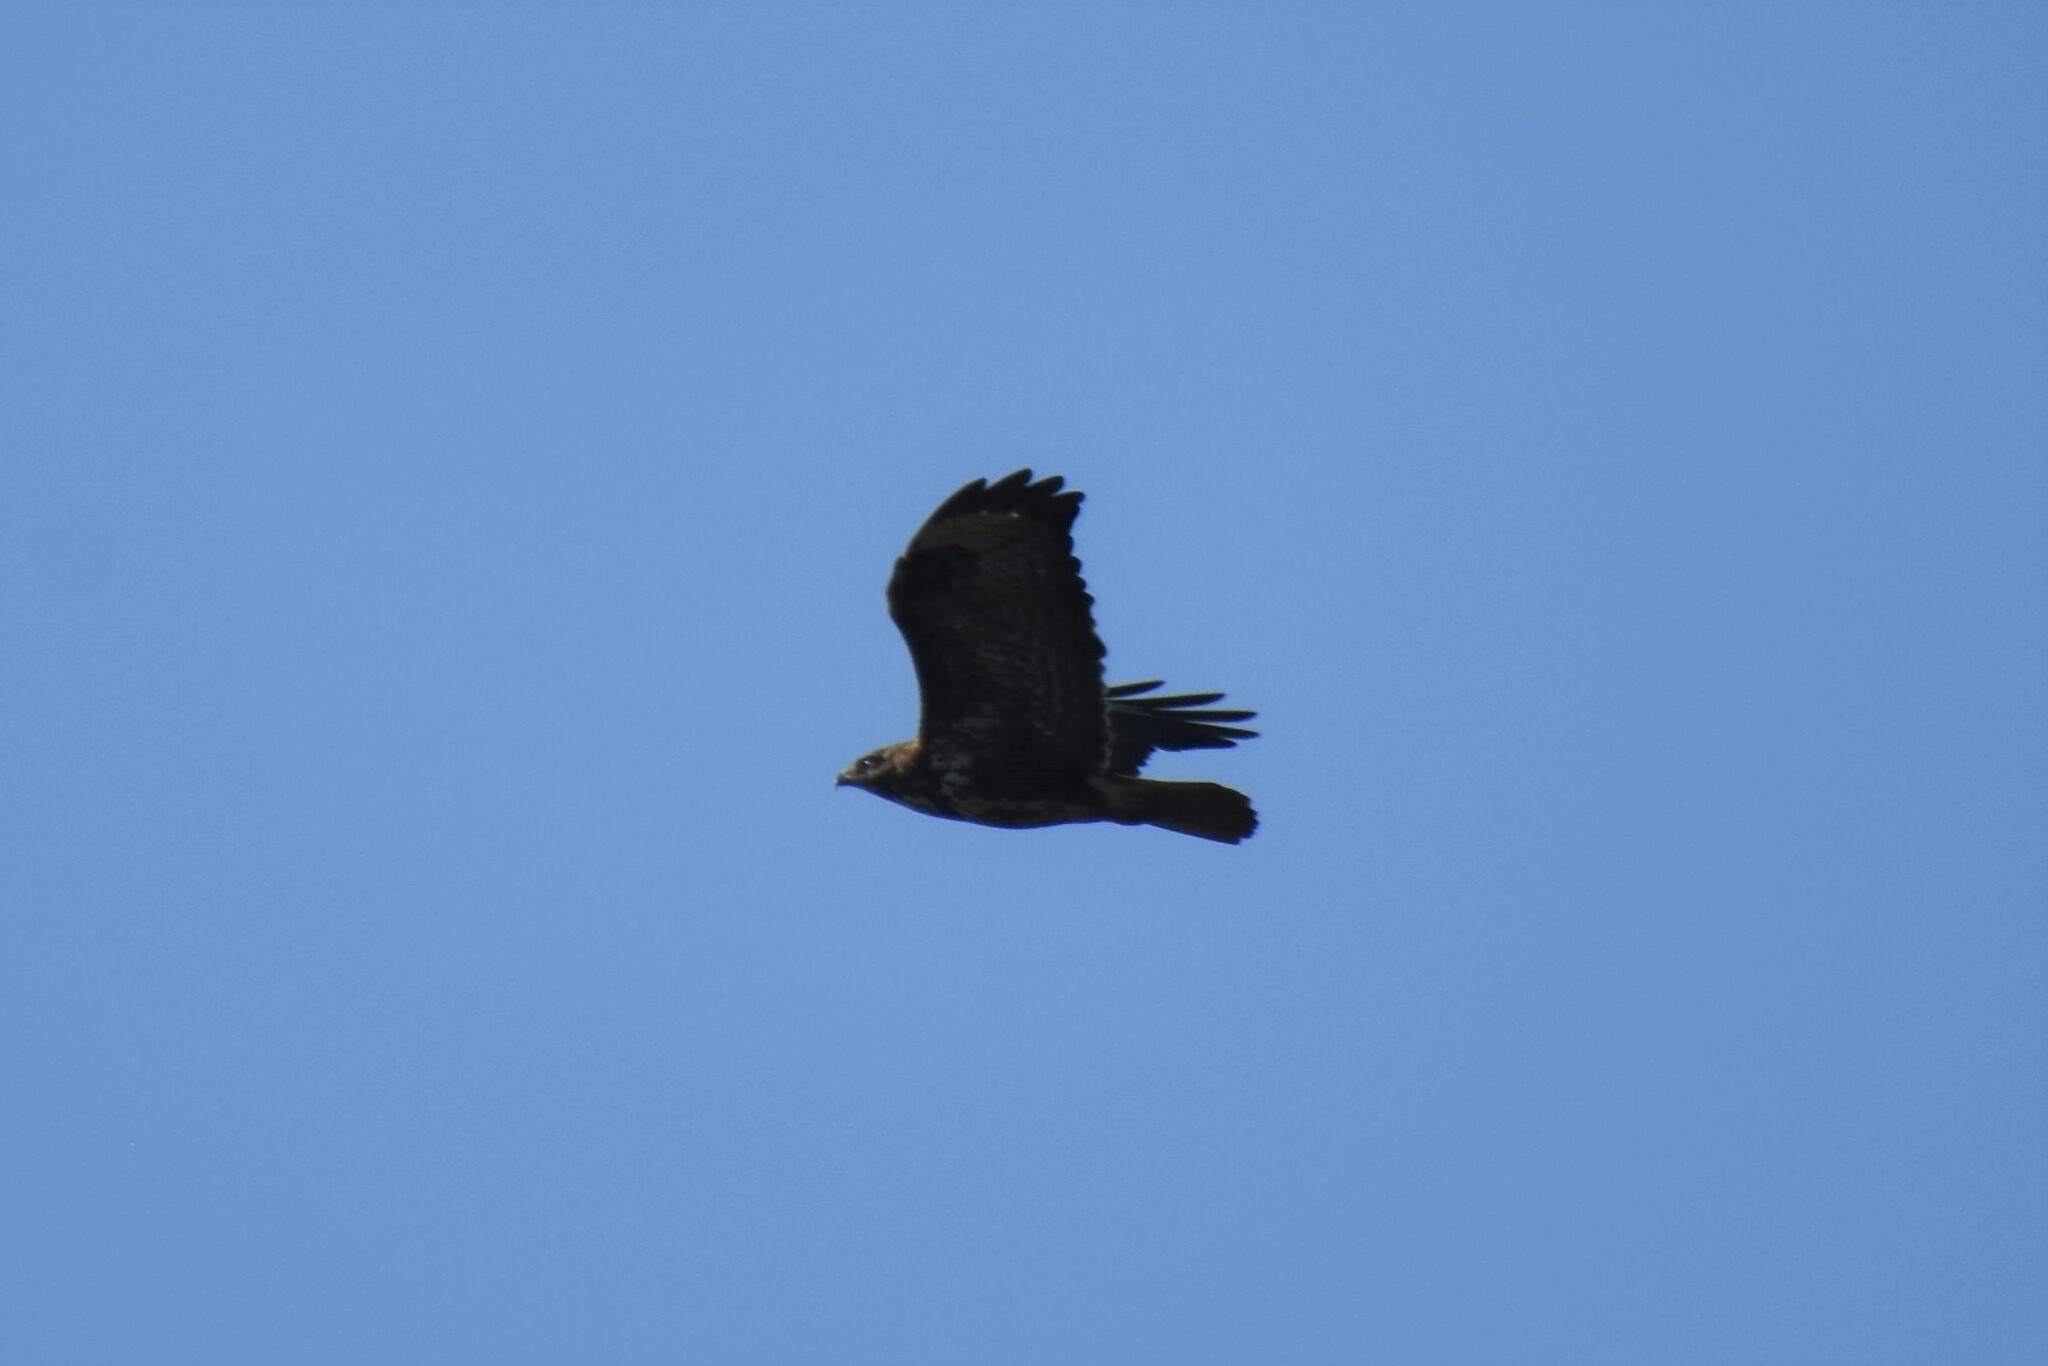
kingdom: Animalia
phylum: Chordata
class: Aves
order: Accipitriformes
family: Accipitridae
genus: Buteo
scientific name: Buteo buteo
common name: Common buzzard
